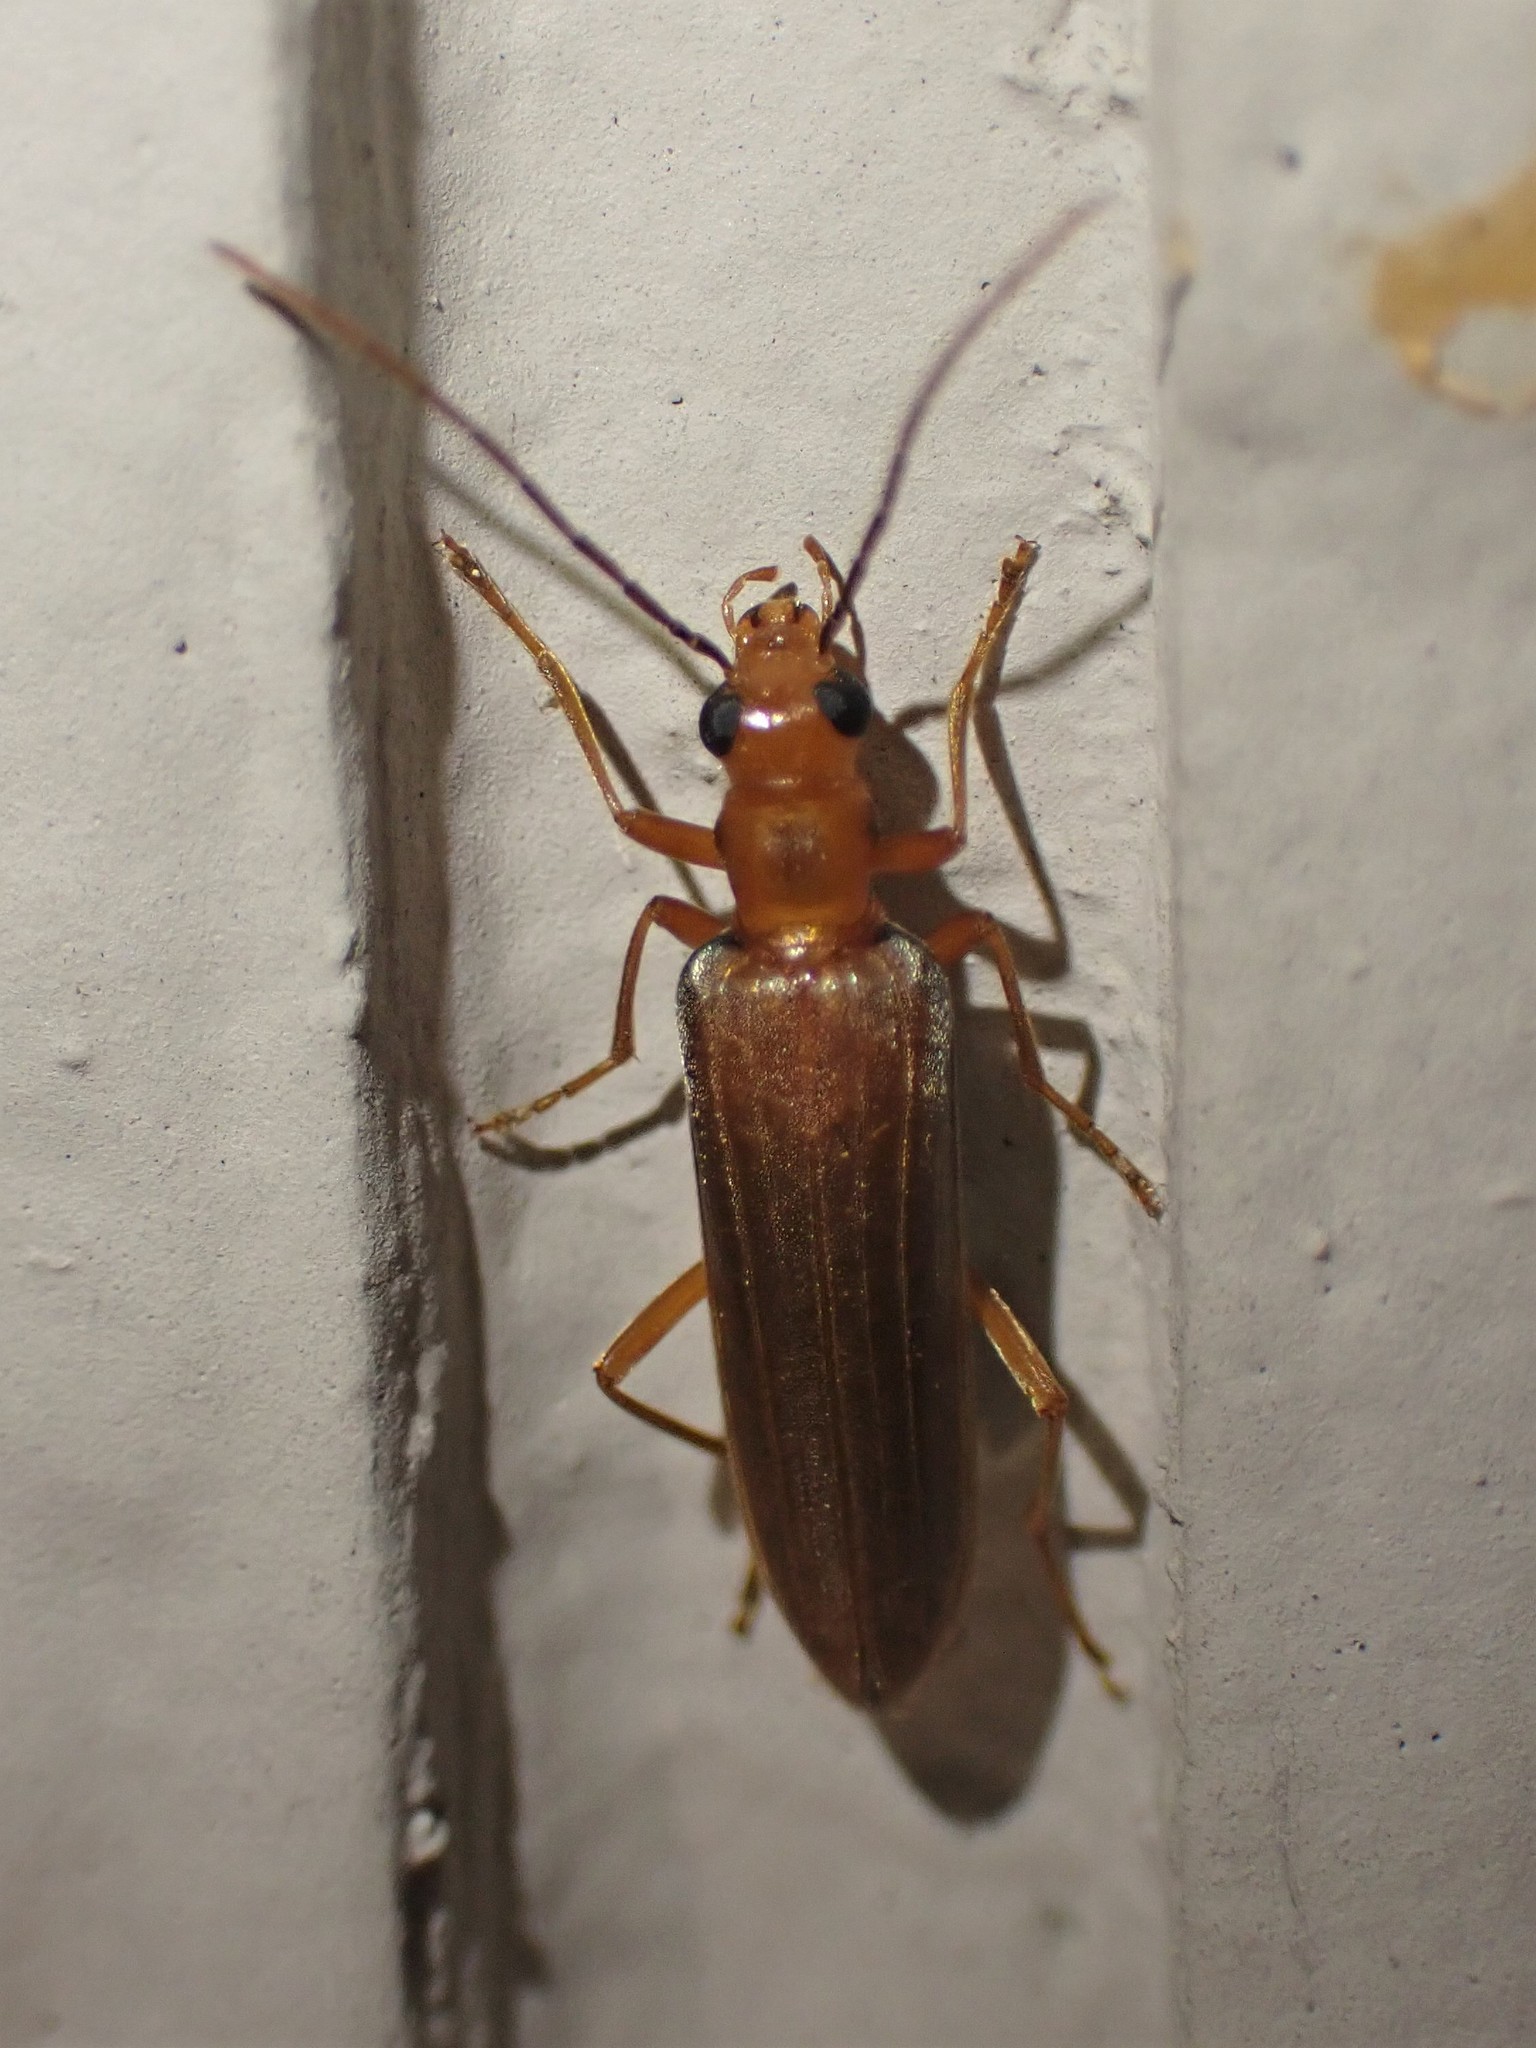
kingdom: Animalia
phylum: Arthropoda
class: Insecta
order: Coleoptera
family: Oedemeridae
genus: Nacerdes
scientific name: Nacerdes
